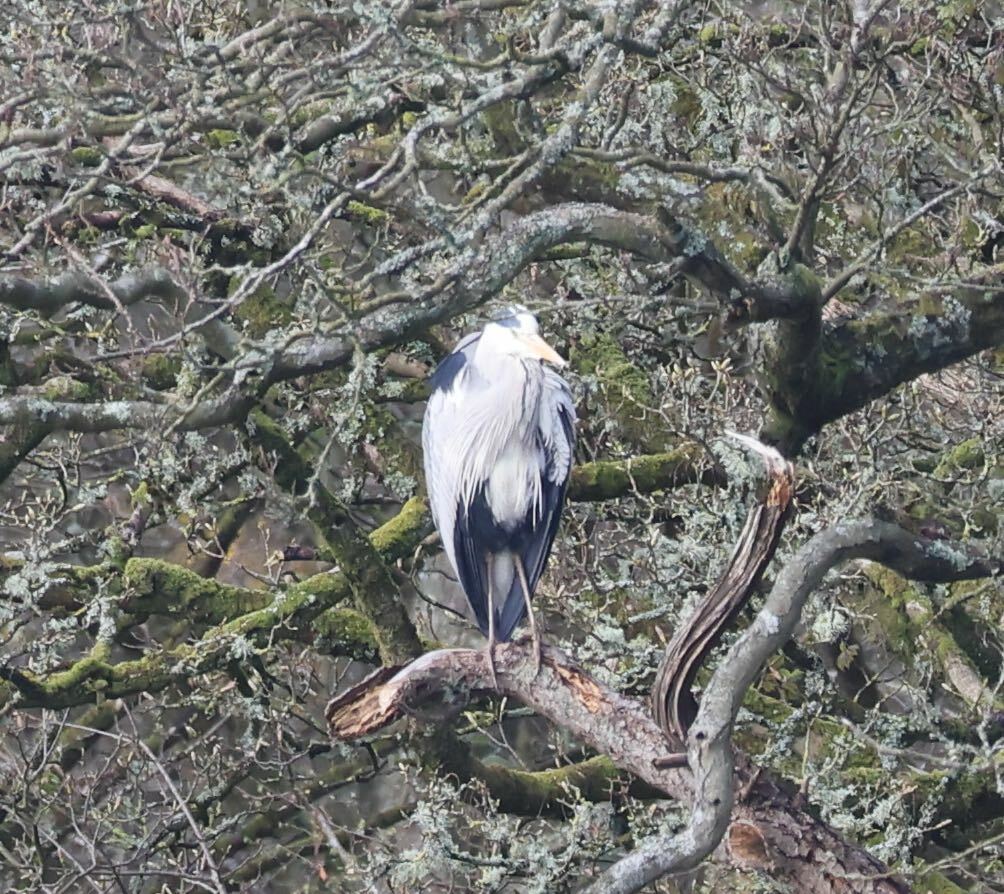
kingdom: Animalia
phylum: Chordata
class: Aves
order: Pelecaniformes
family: Ardeidae
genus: Ardea
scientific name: Ardea cinerea
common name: Grey heron
